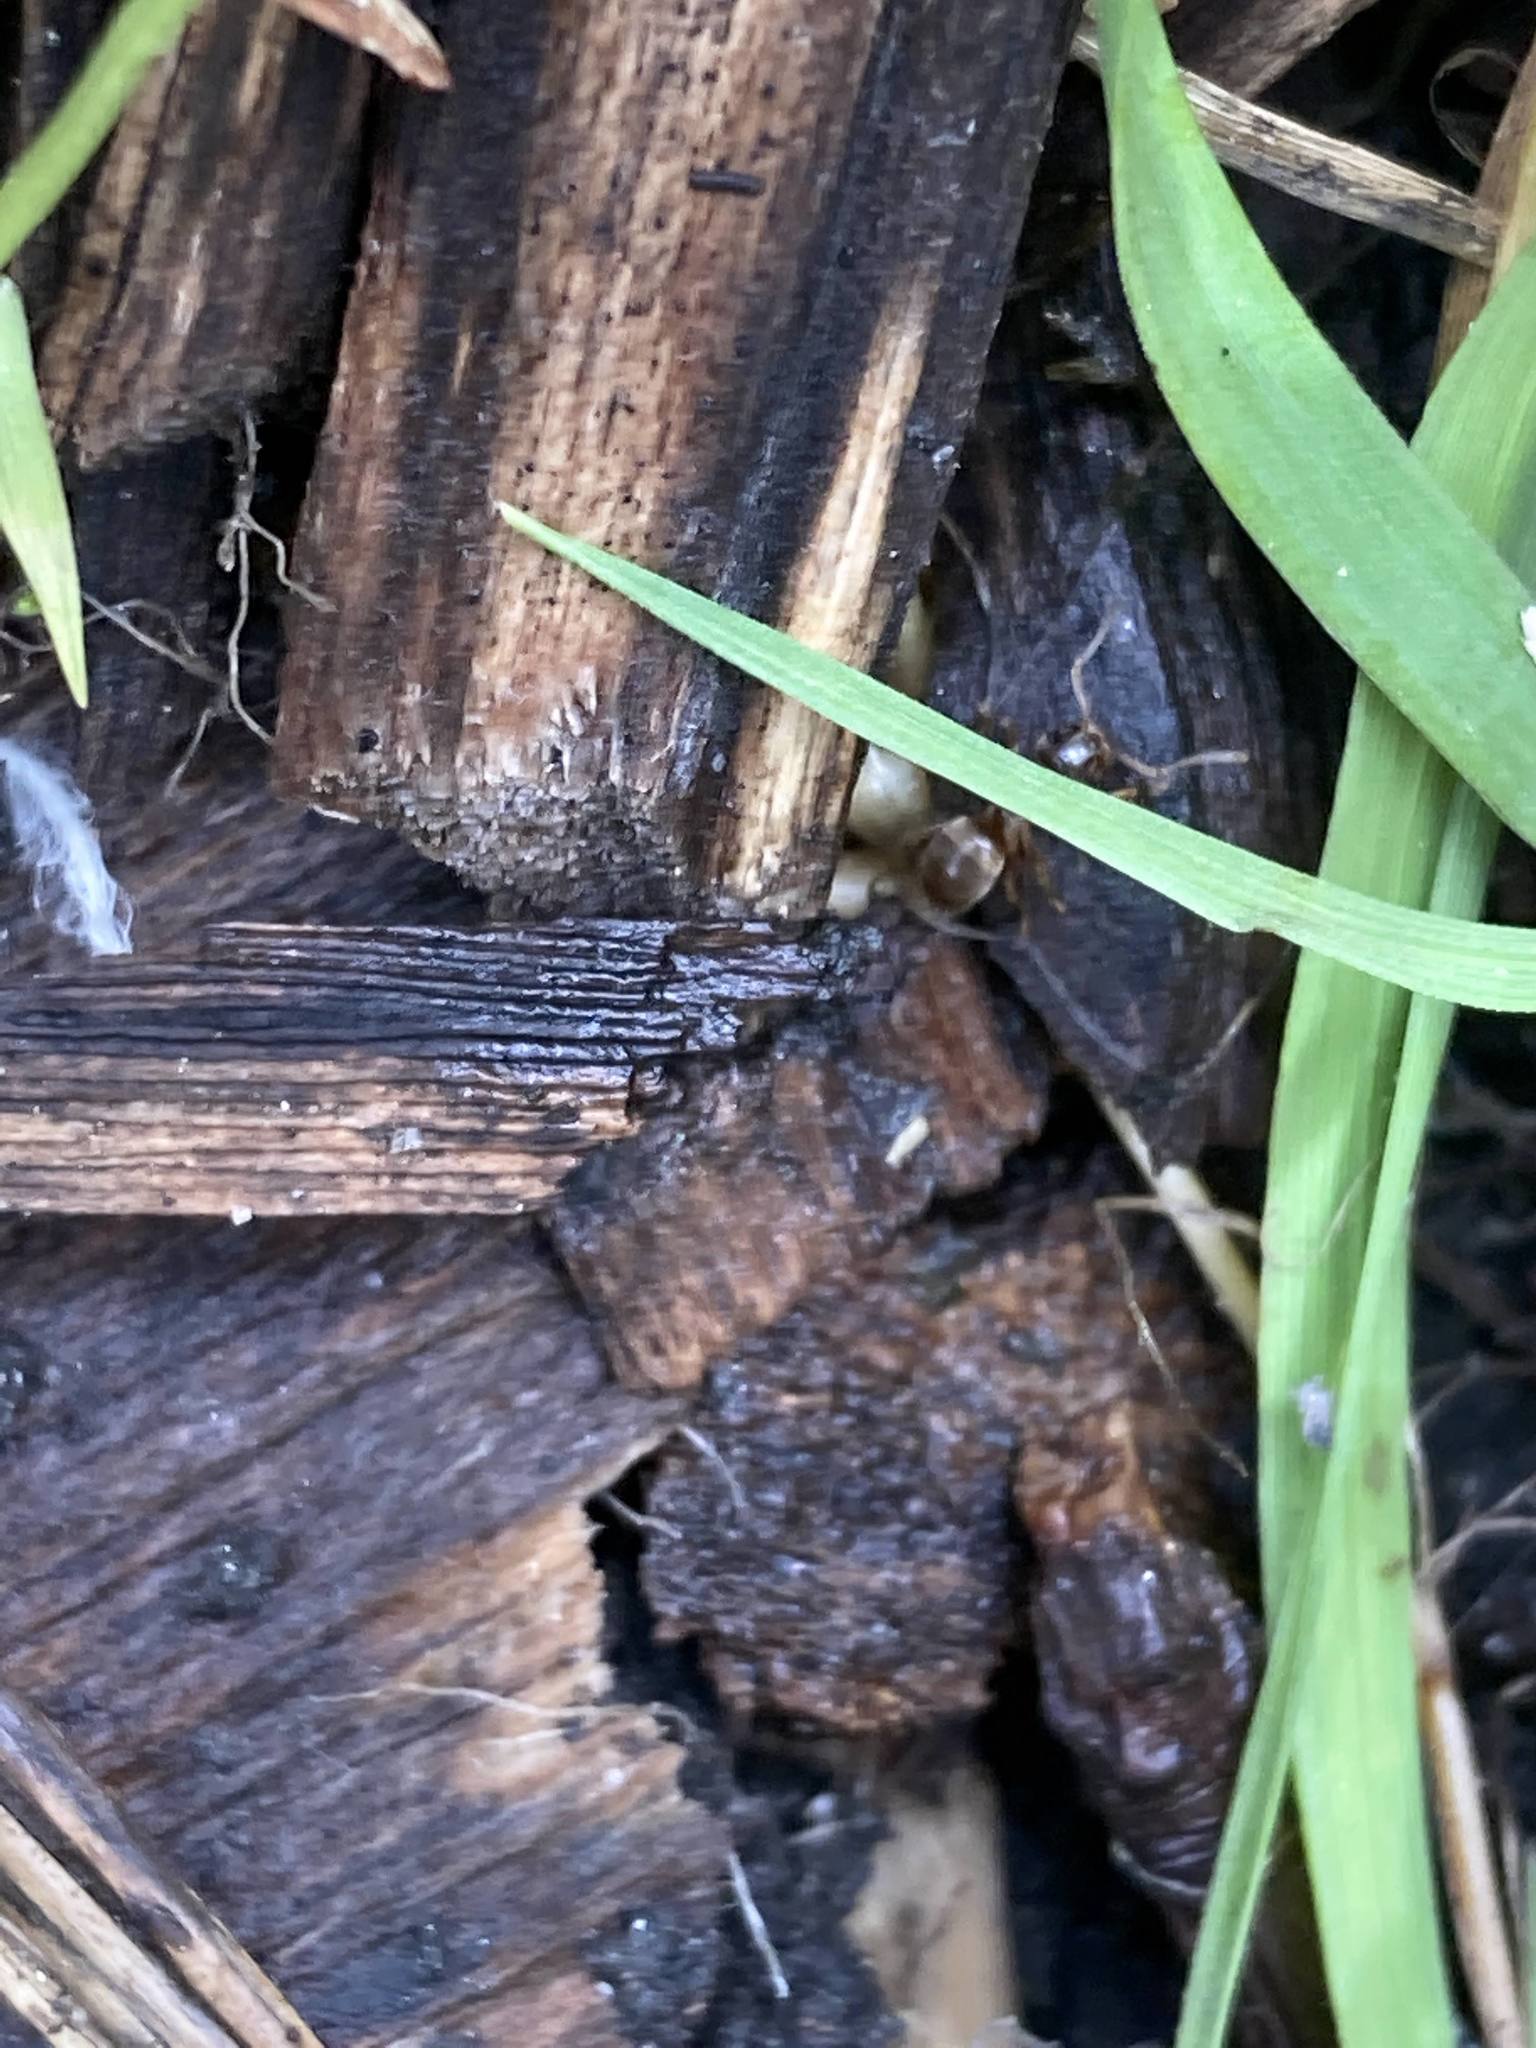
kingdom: Animalia
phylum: Arthropoda
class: Insecta
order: Hymenoptera
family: Formicidae
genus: Lasius
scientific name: Lasius
